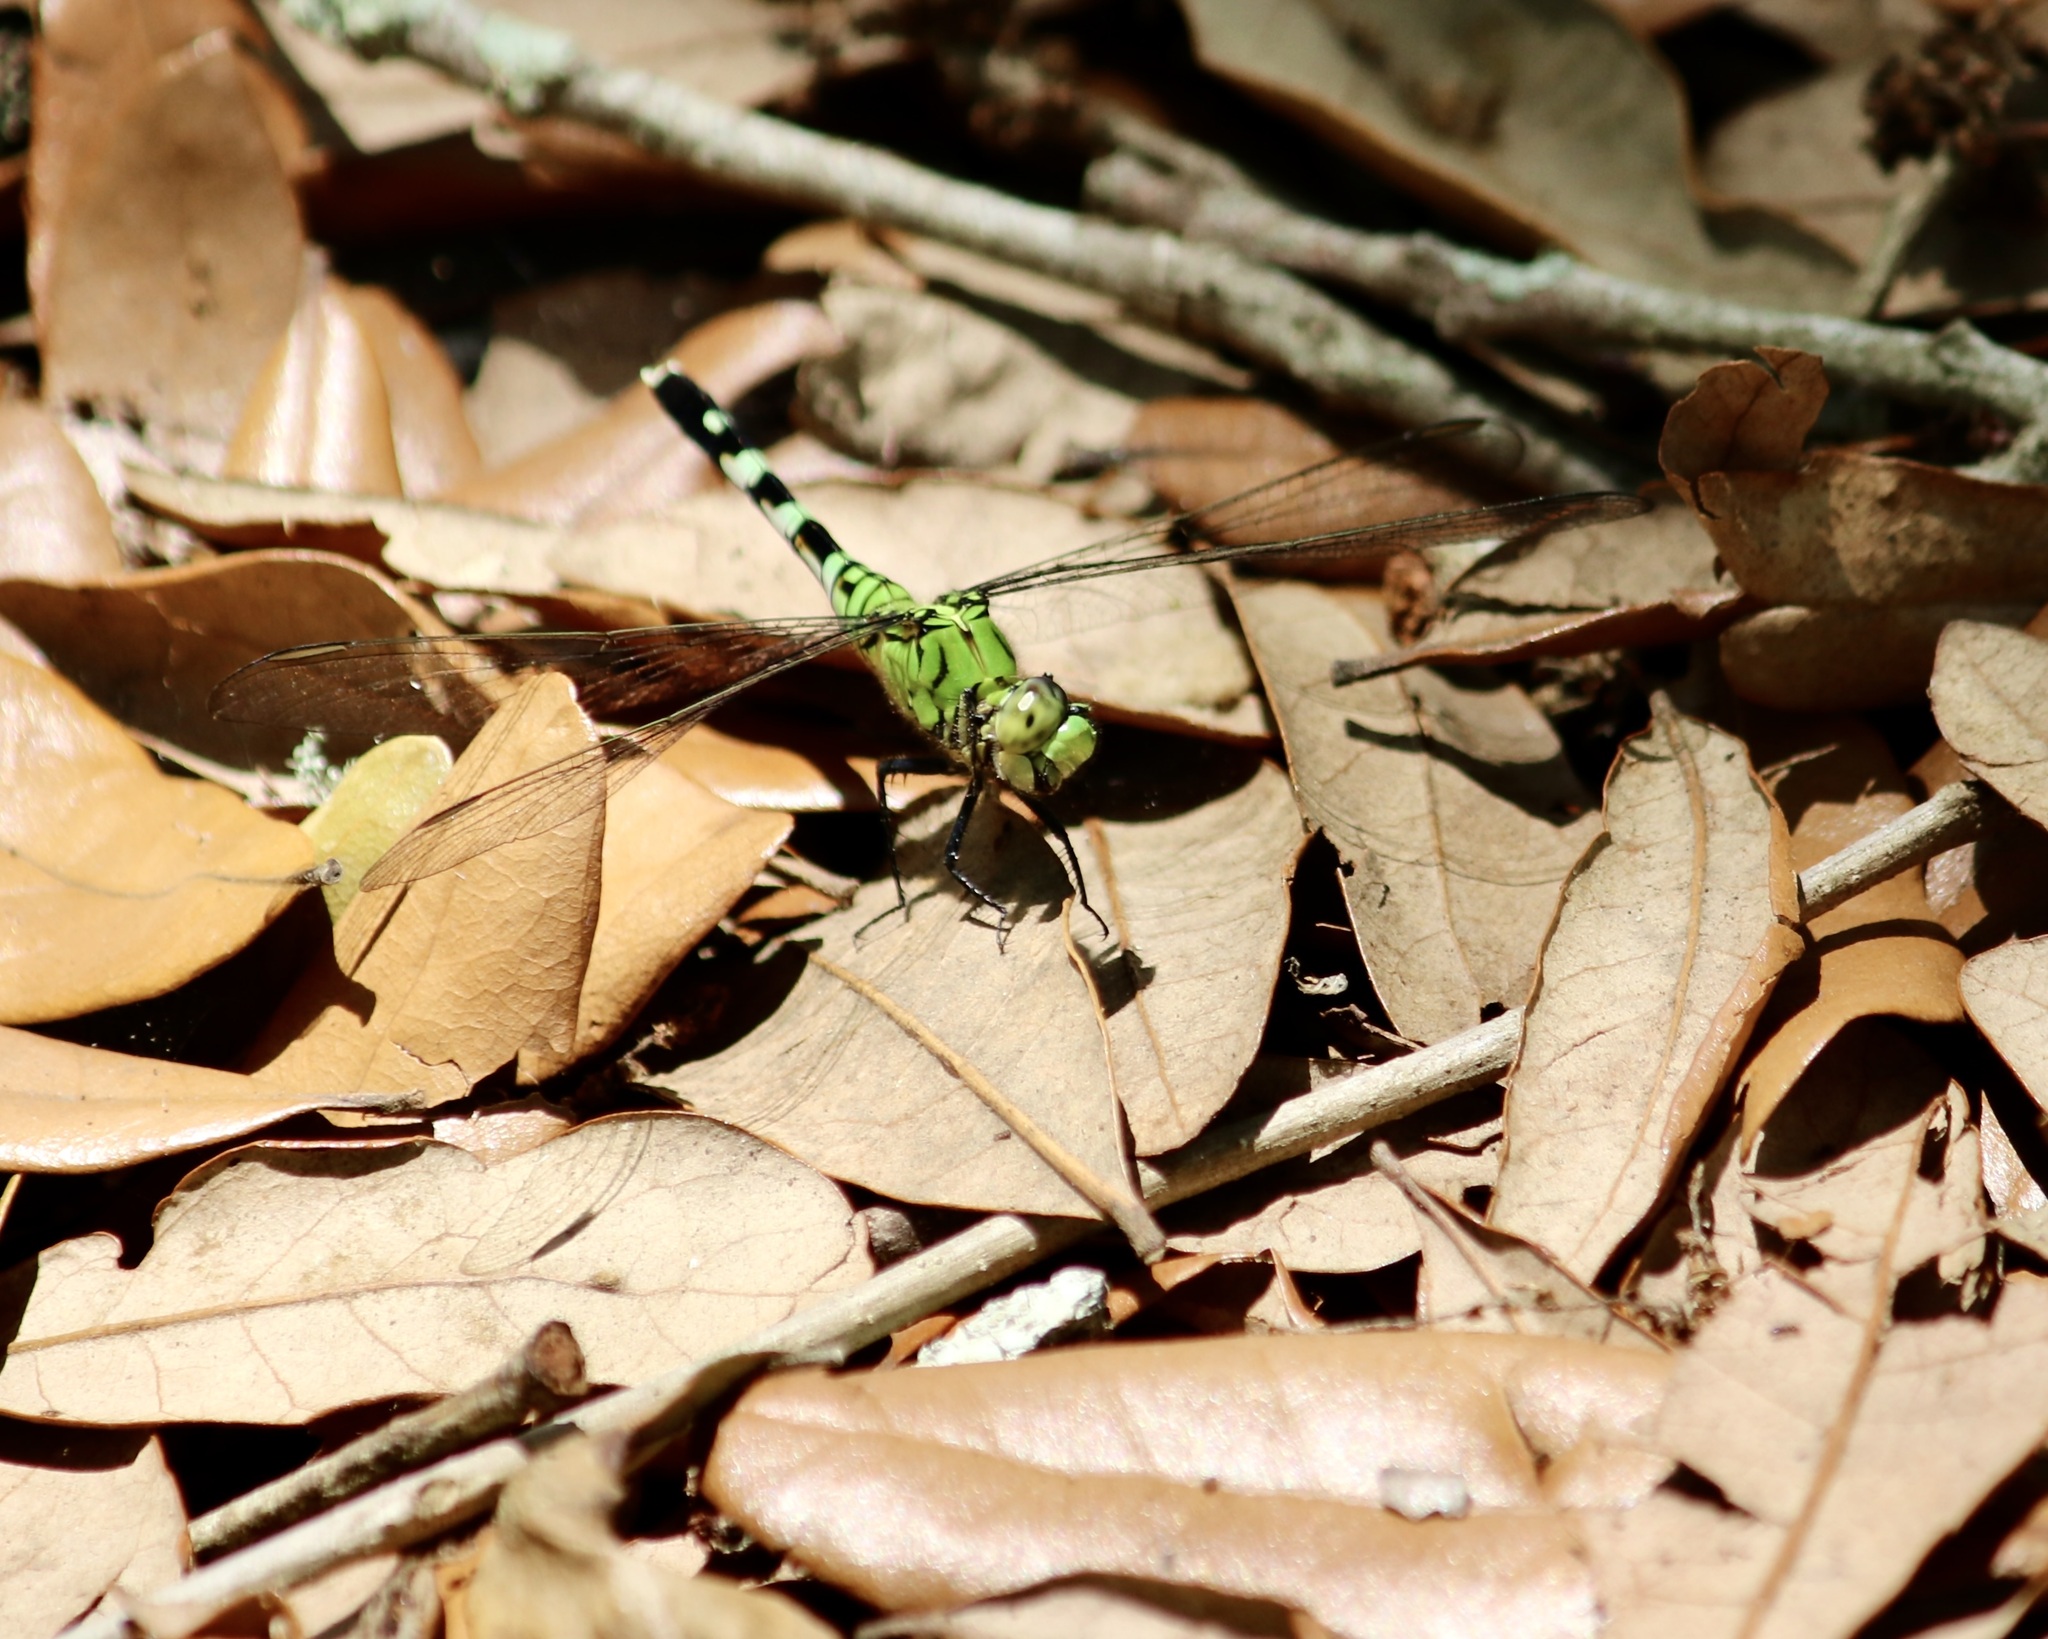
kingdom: Animalia
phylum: Arthropoda
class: Insecta
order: Odonata
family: Libellulidae
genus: Erythemis
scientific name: Erythemis simplicicollis
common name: Eastern pondhawk
